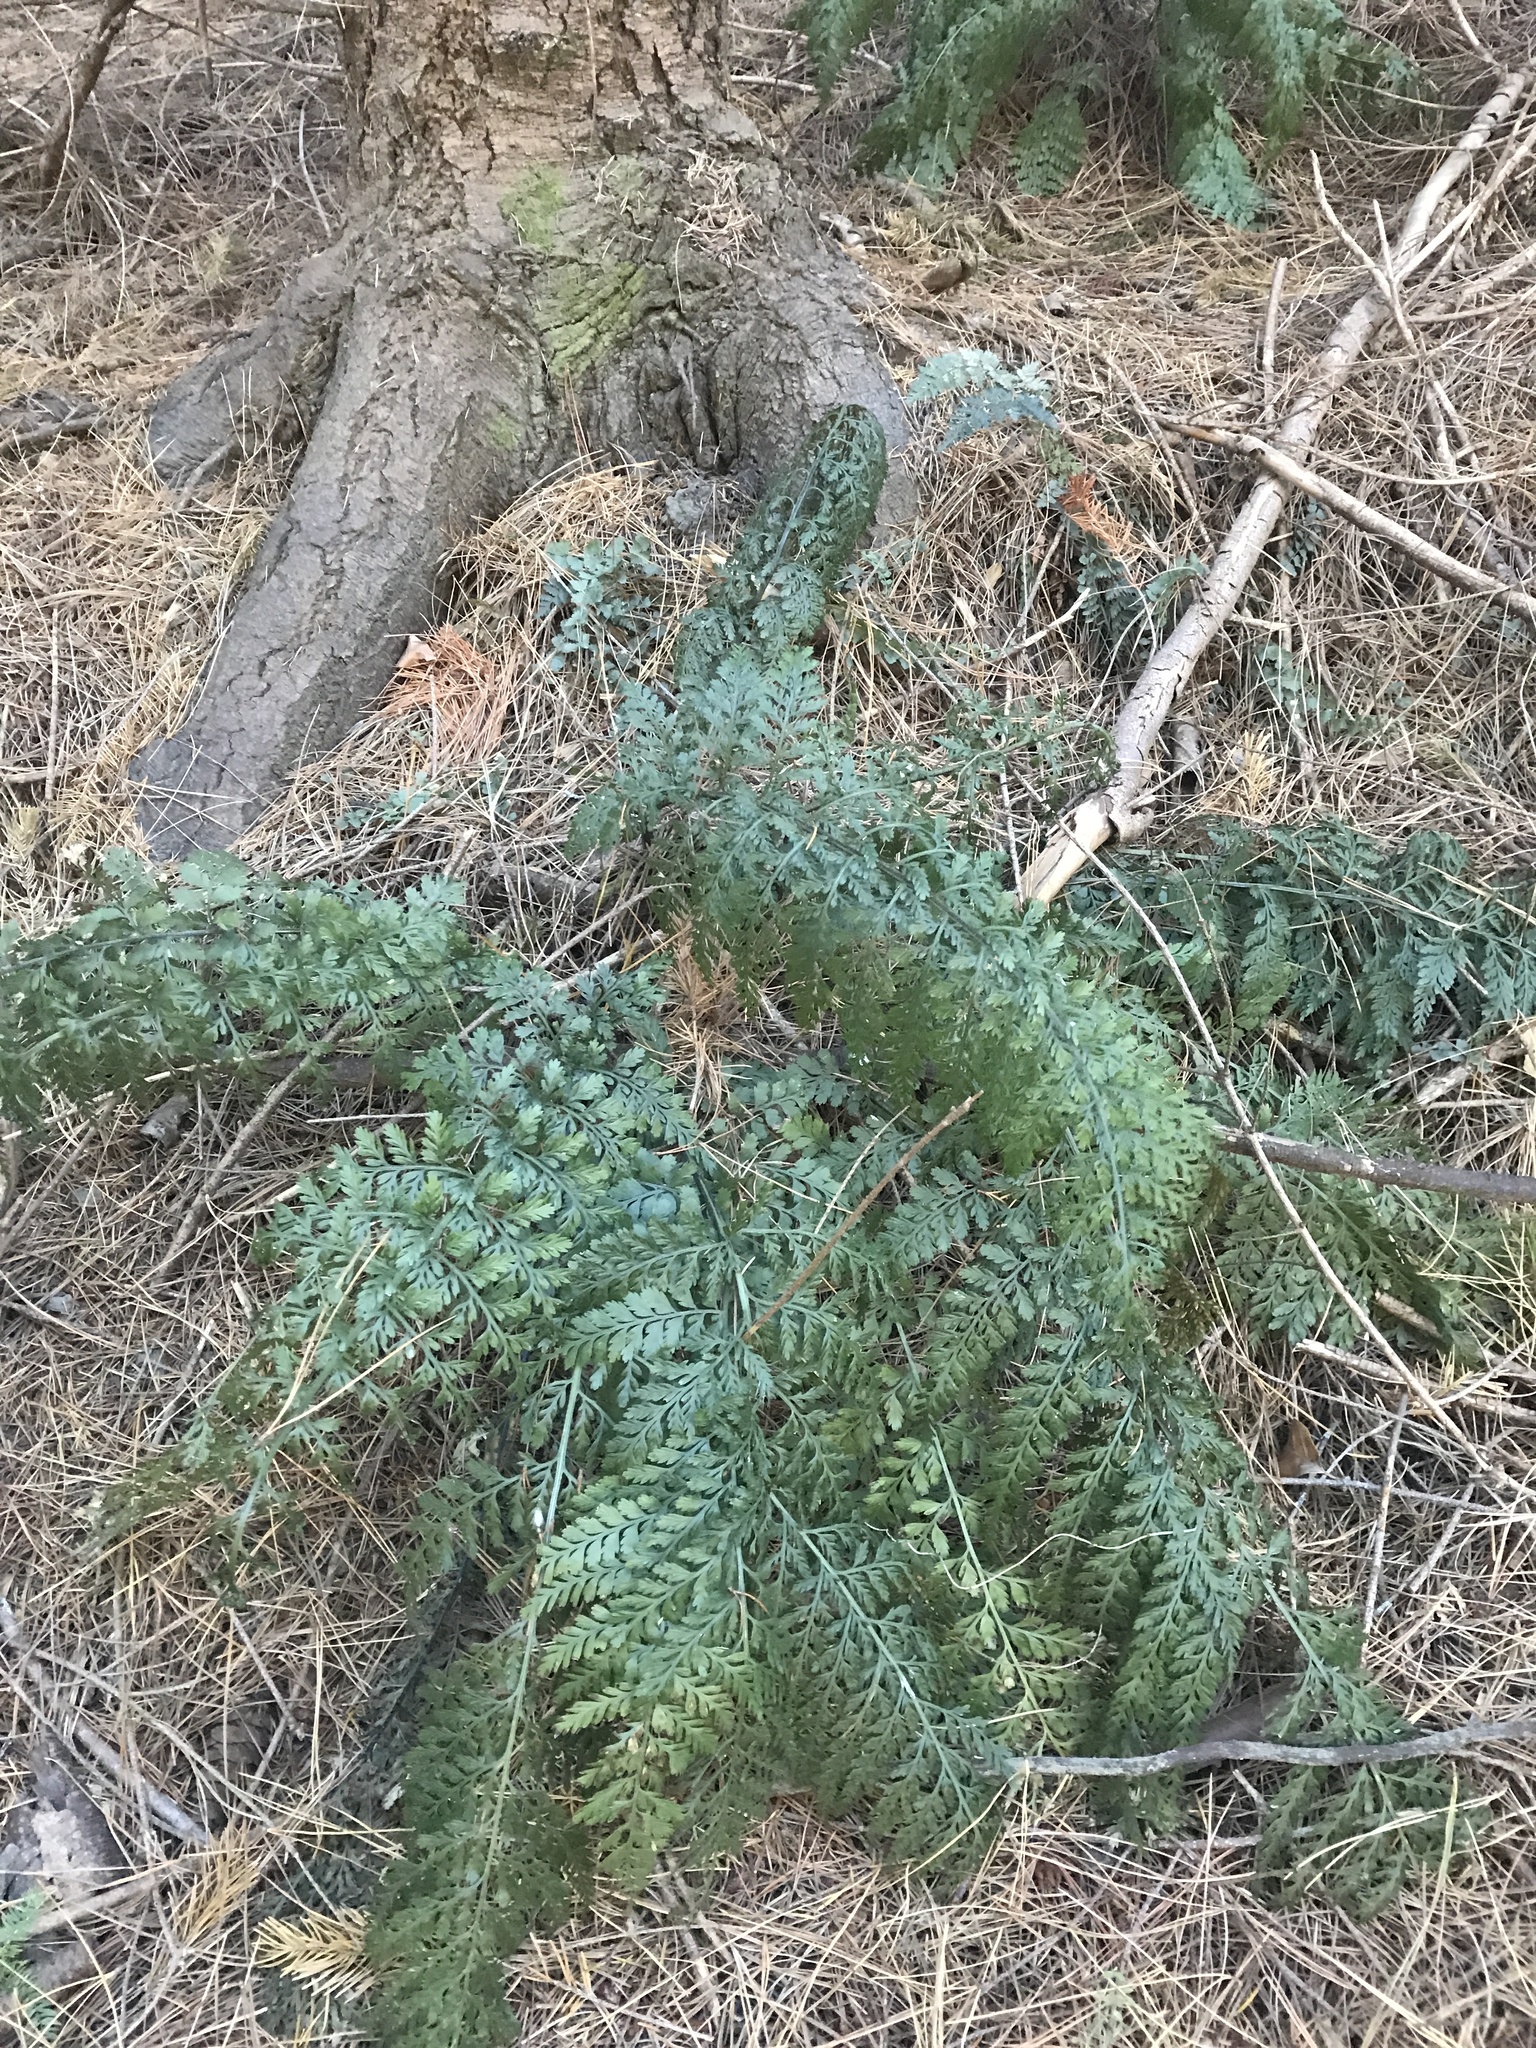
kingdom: Plantae
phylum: Tracheophyta
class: Polypodiopsida
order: Polypodiales
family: Aspleniaceae
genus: Asplenium
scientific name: Asplenium
